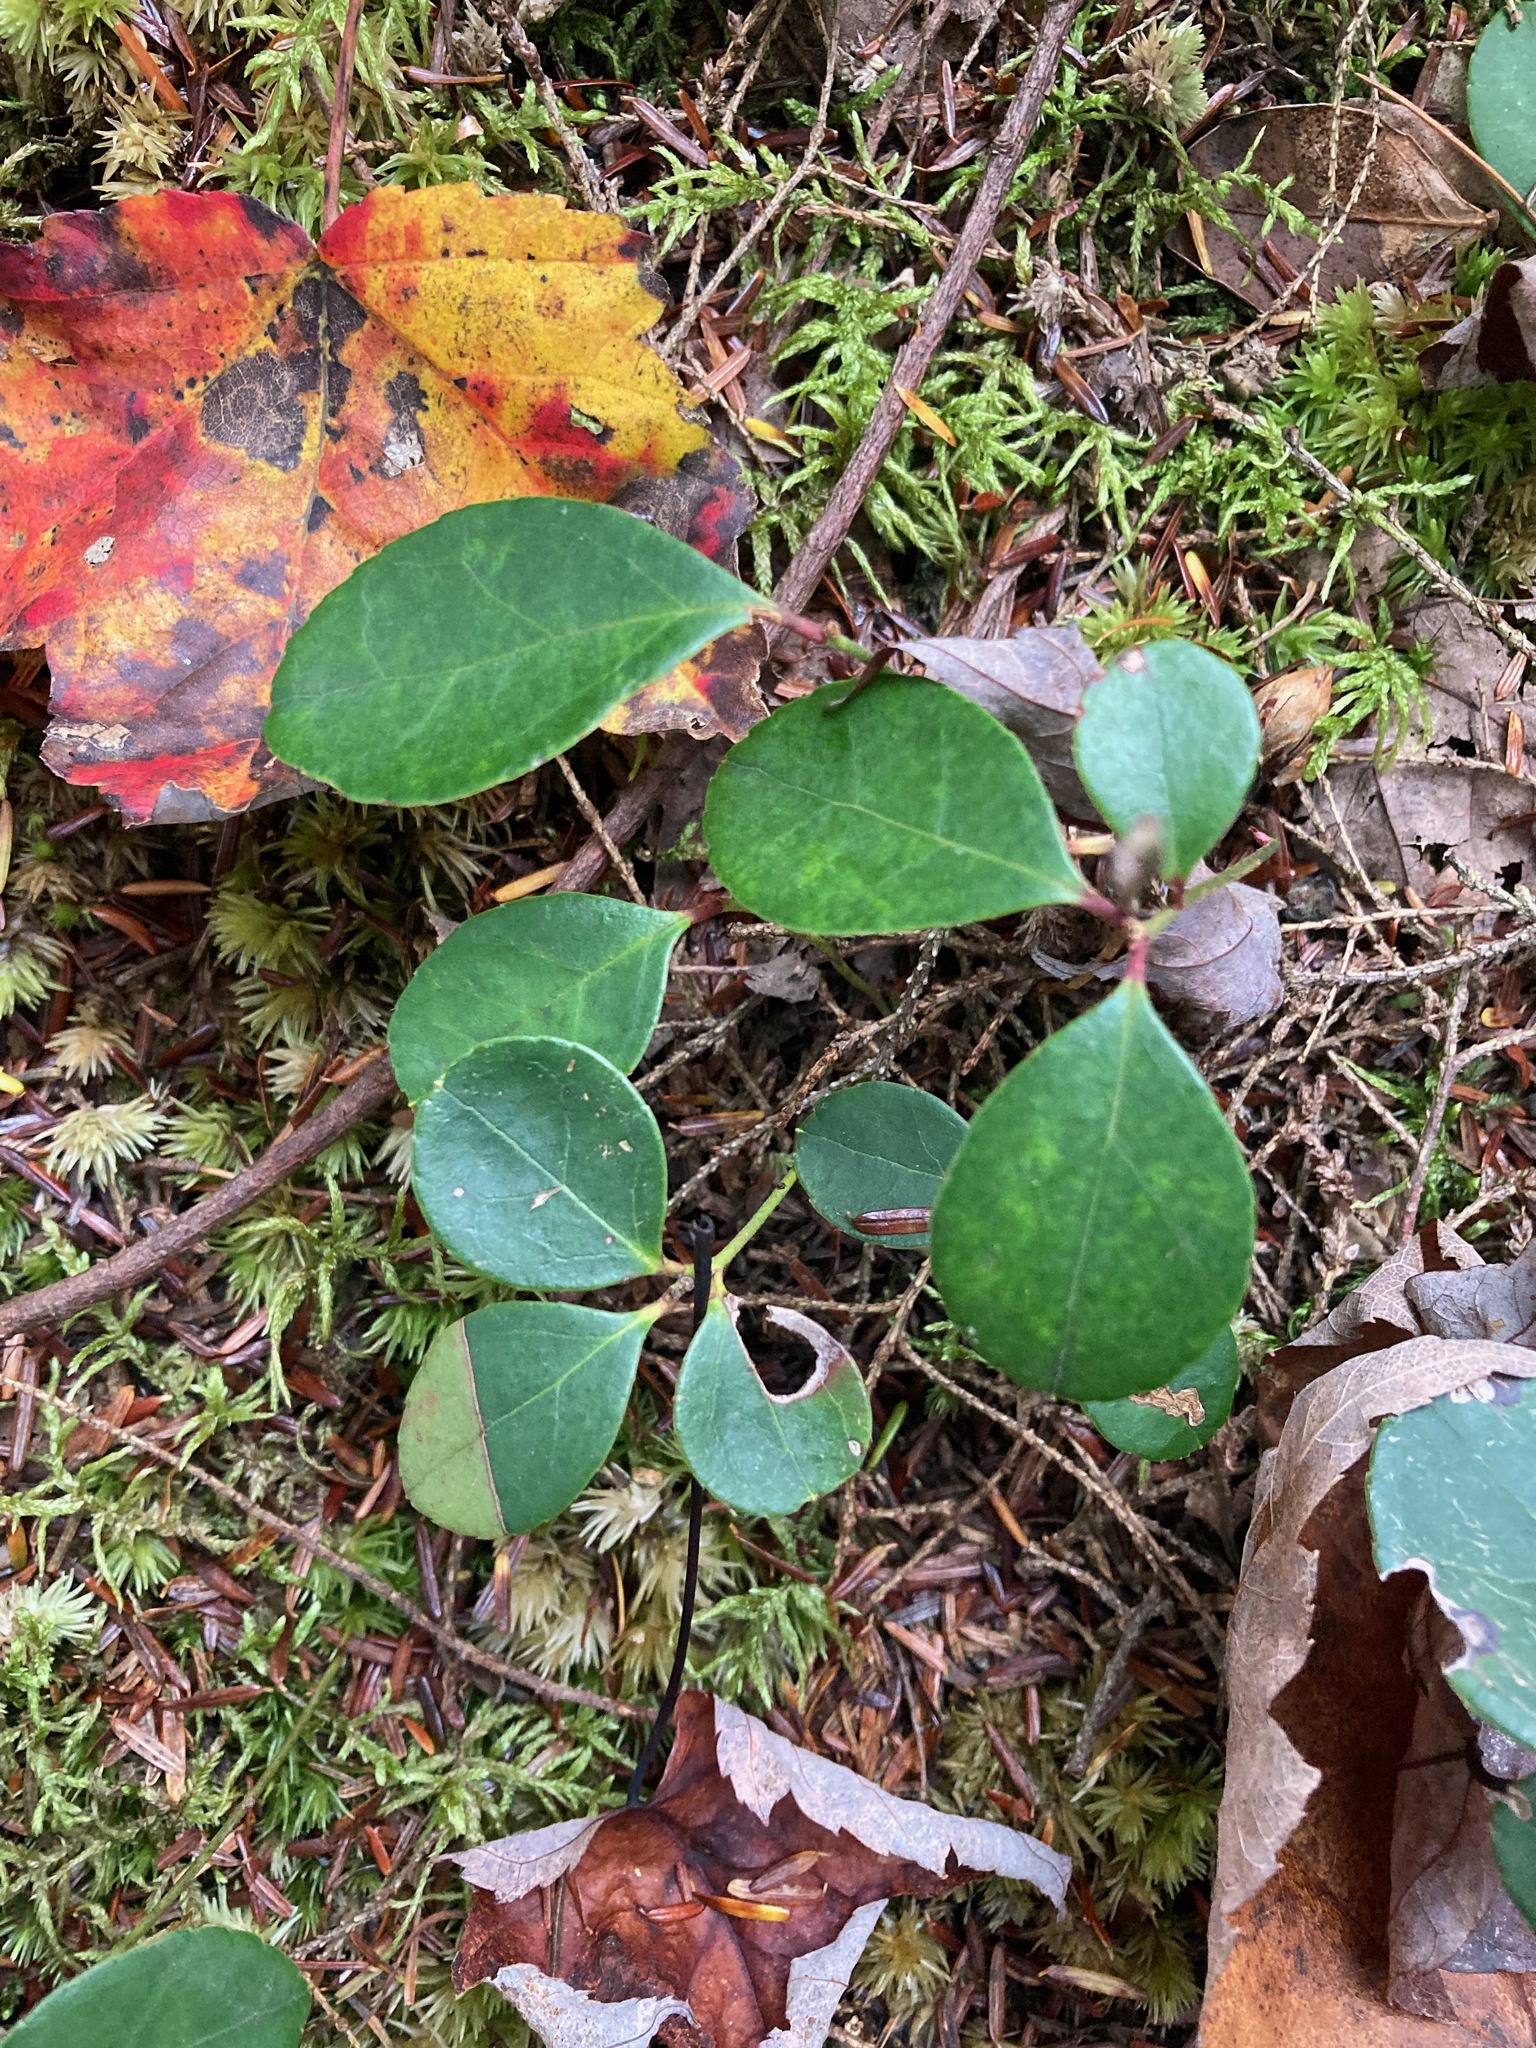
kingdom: Plantae
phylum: Tracheophyta
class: Magnoliopsida
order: Ericales
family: Ericaceae
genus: Gaultheria
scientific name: Gaultheria procumbens
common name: Checkerberry
